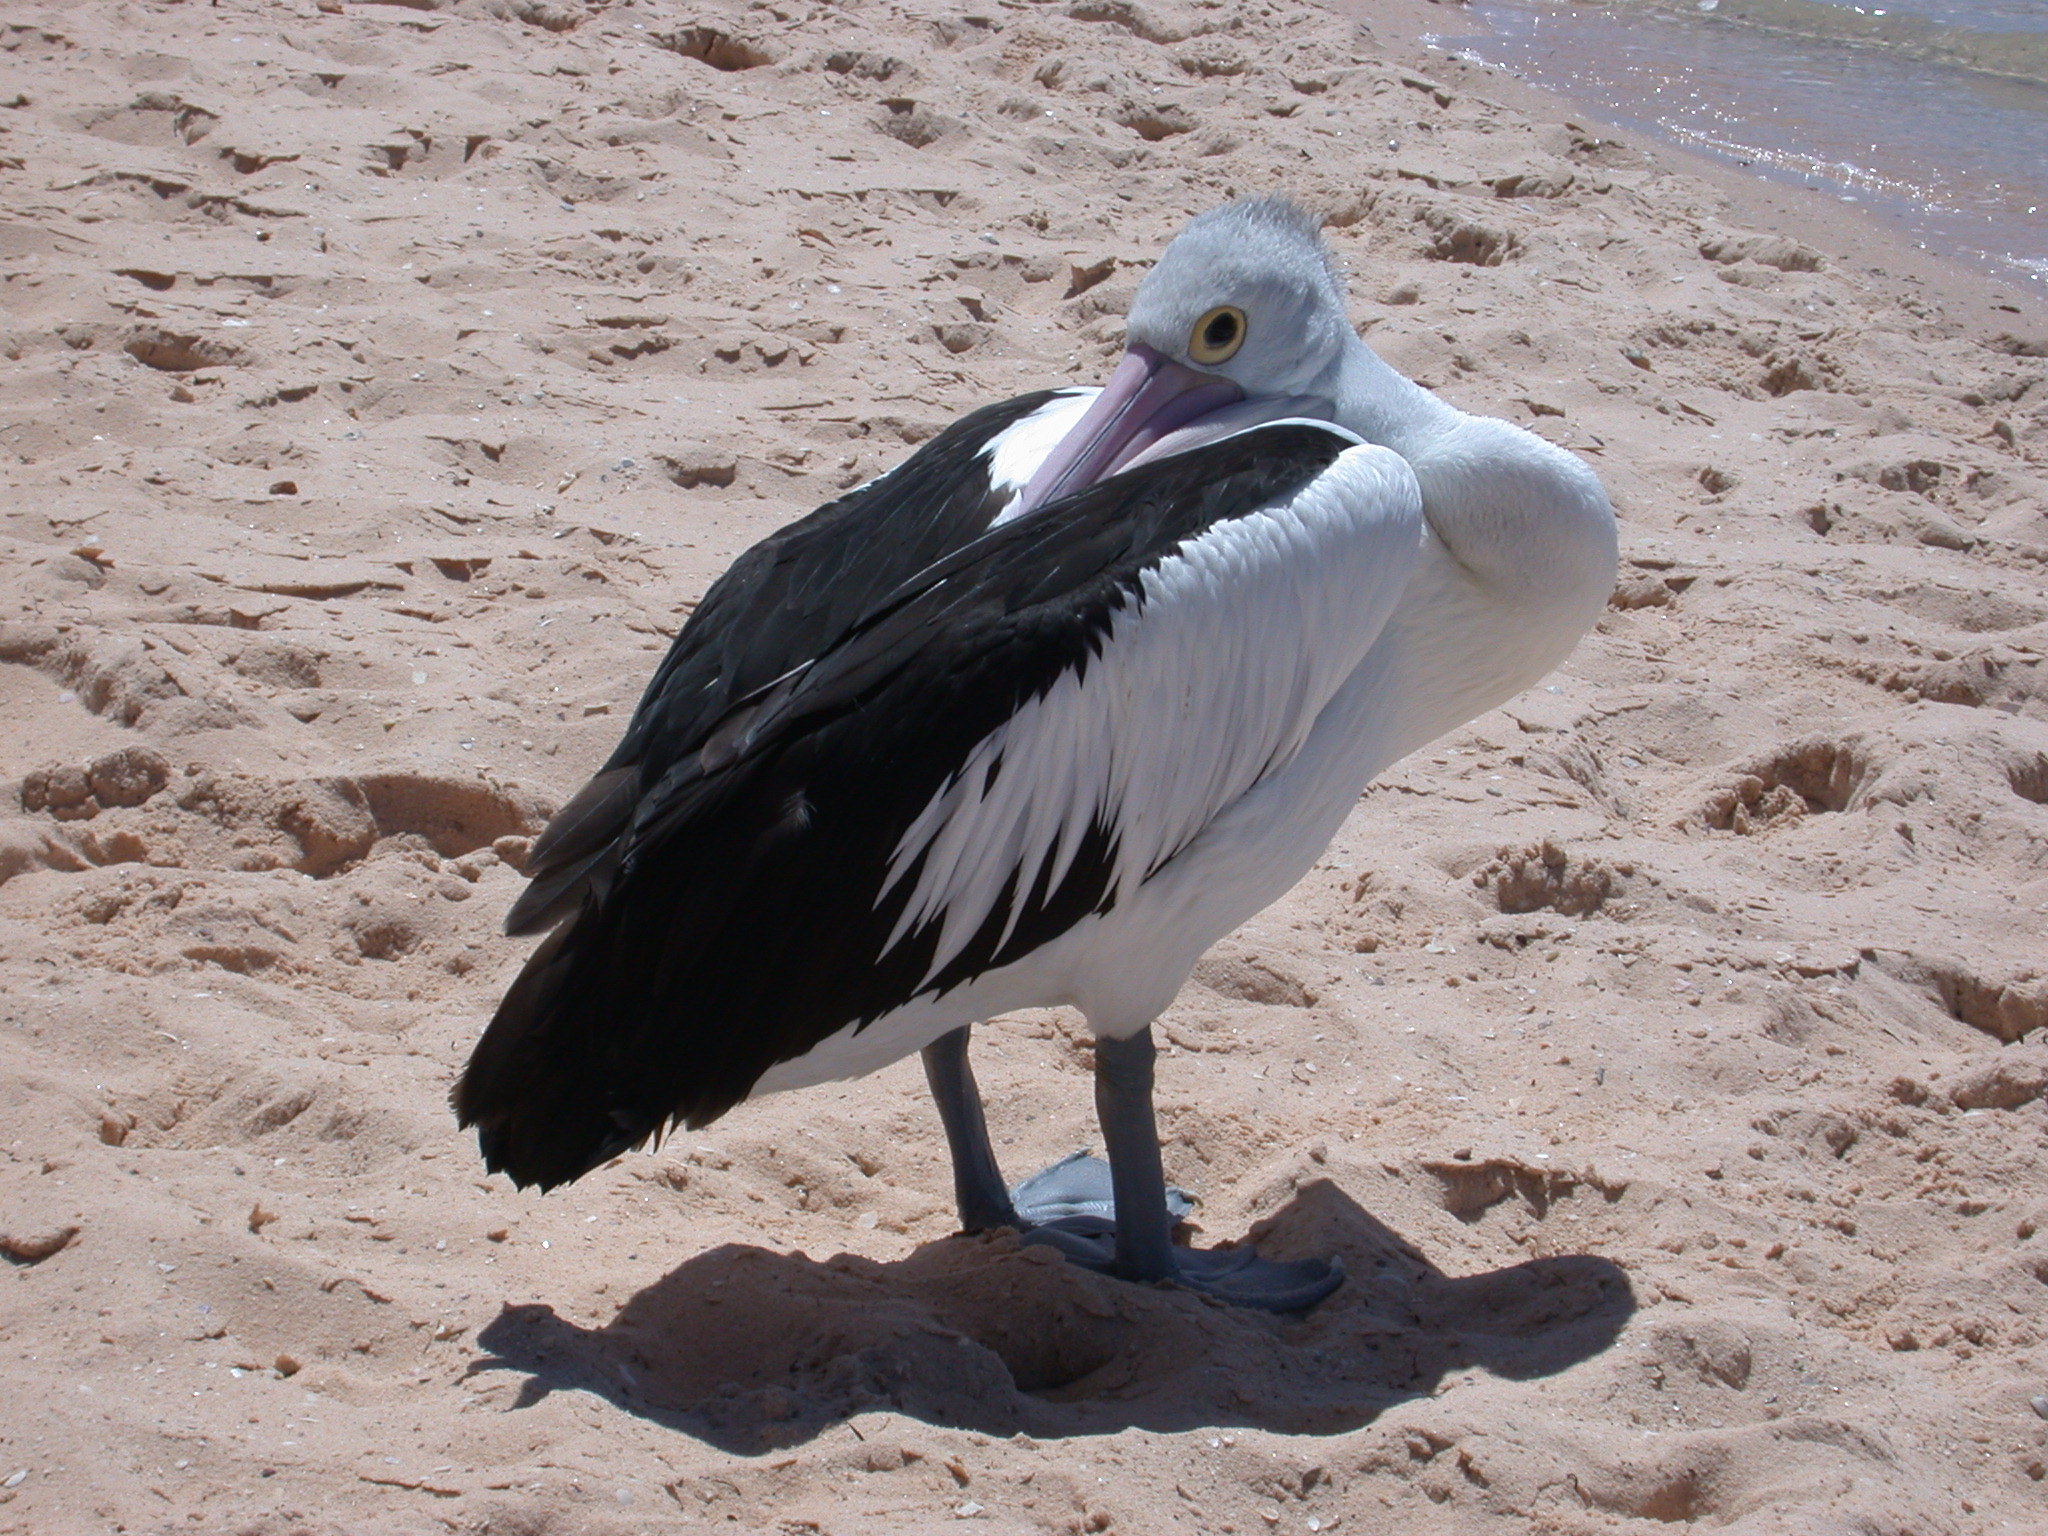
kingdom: Animalia
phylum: Chordata
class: Aves
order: Pelecaniformes
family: Pelecanidae
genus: Pelecanus
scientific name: Pelecanus conspicillatus
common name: Australian pelican
